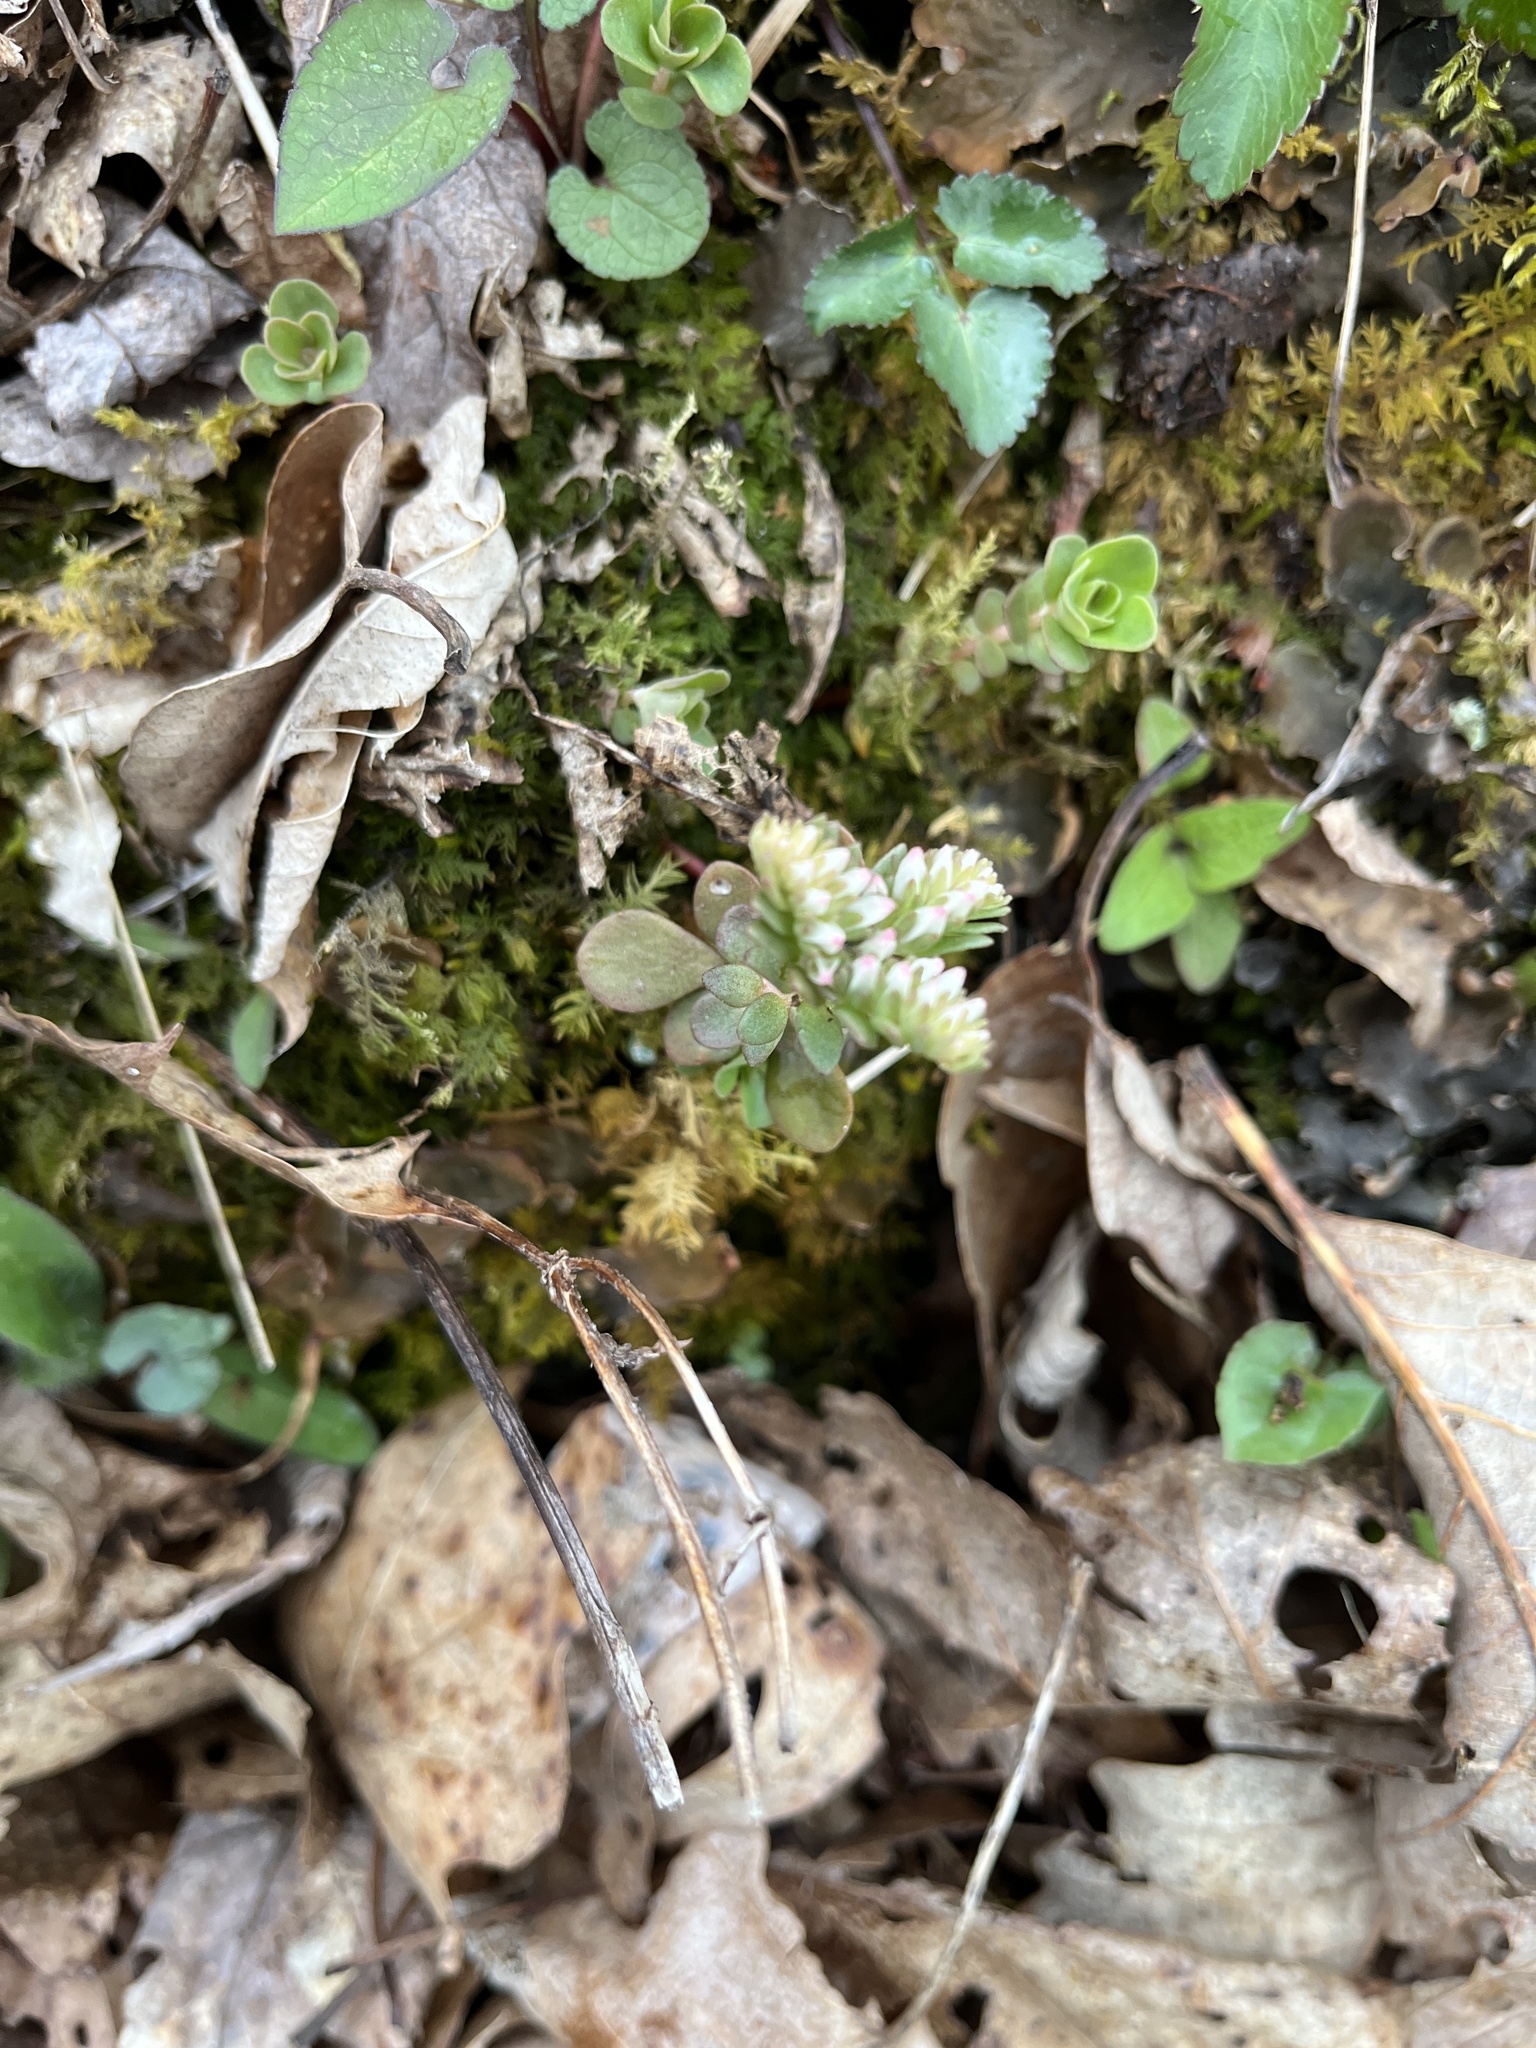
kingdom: Plantae
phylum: Tracheophyta
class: Magnoliopsida
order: Saxifragales
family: Crassulaceae
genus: Sedum
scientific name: Sedum ternatum
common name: Wild stonecrop
